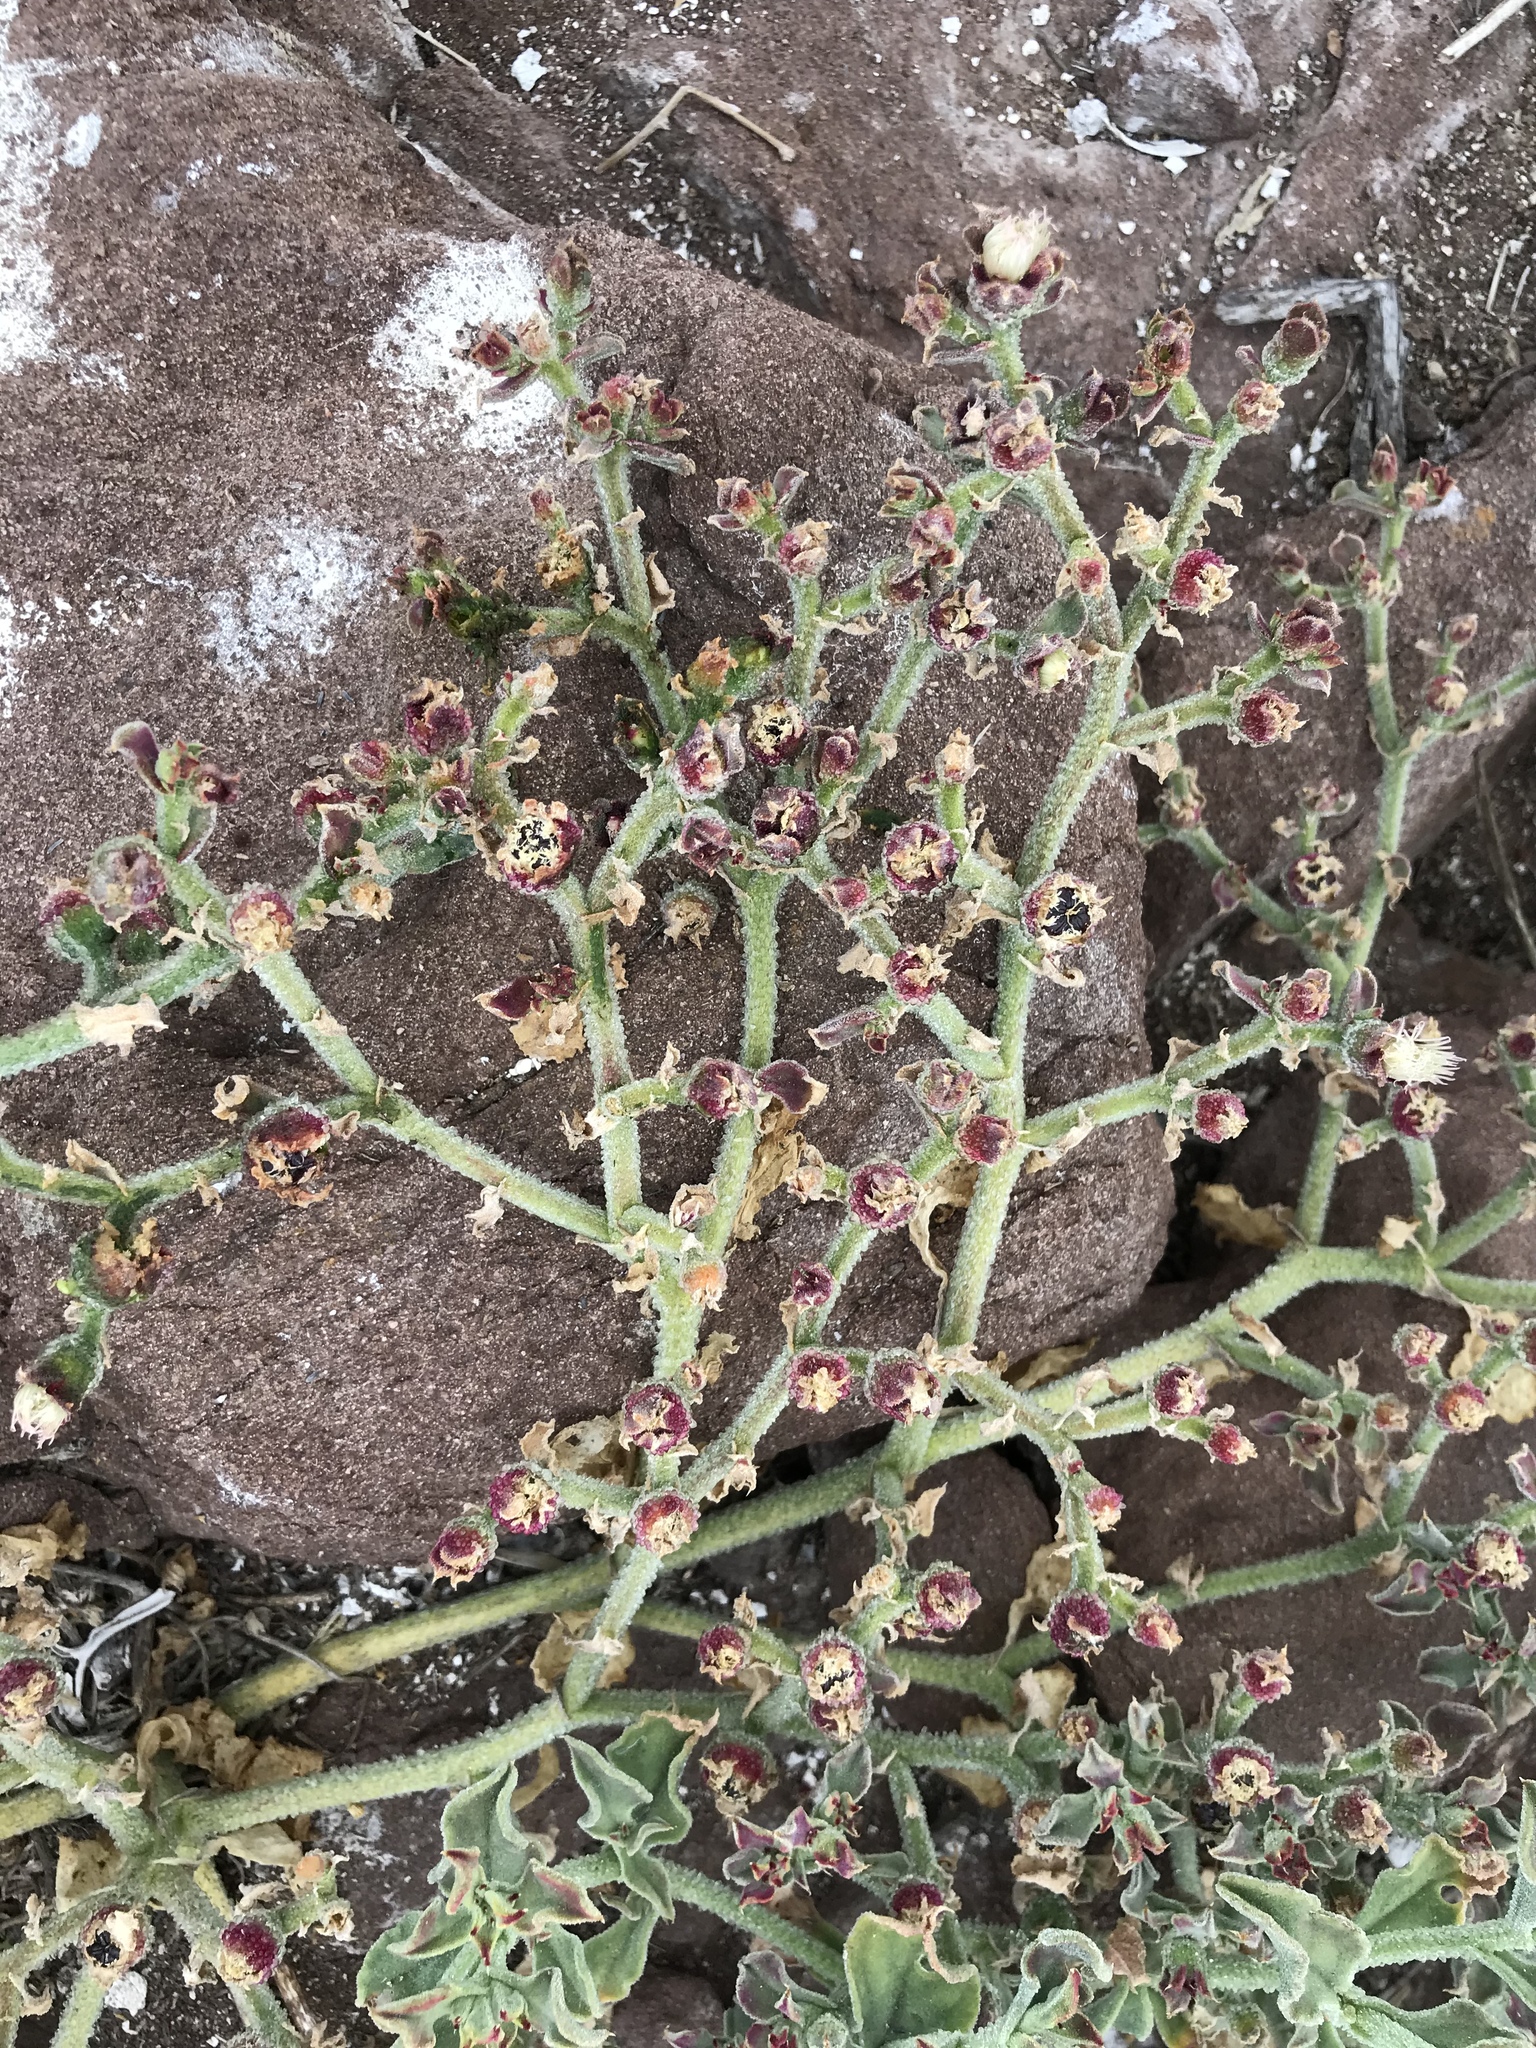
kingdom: Plantae
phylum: Tracheophyta
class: Magnoliopsida
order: Caryophyllales
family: Aizoaceae
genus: Mesembryanthemum
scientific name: Mesembryanthemum crystallinum
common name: Common iceplant
